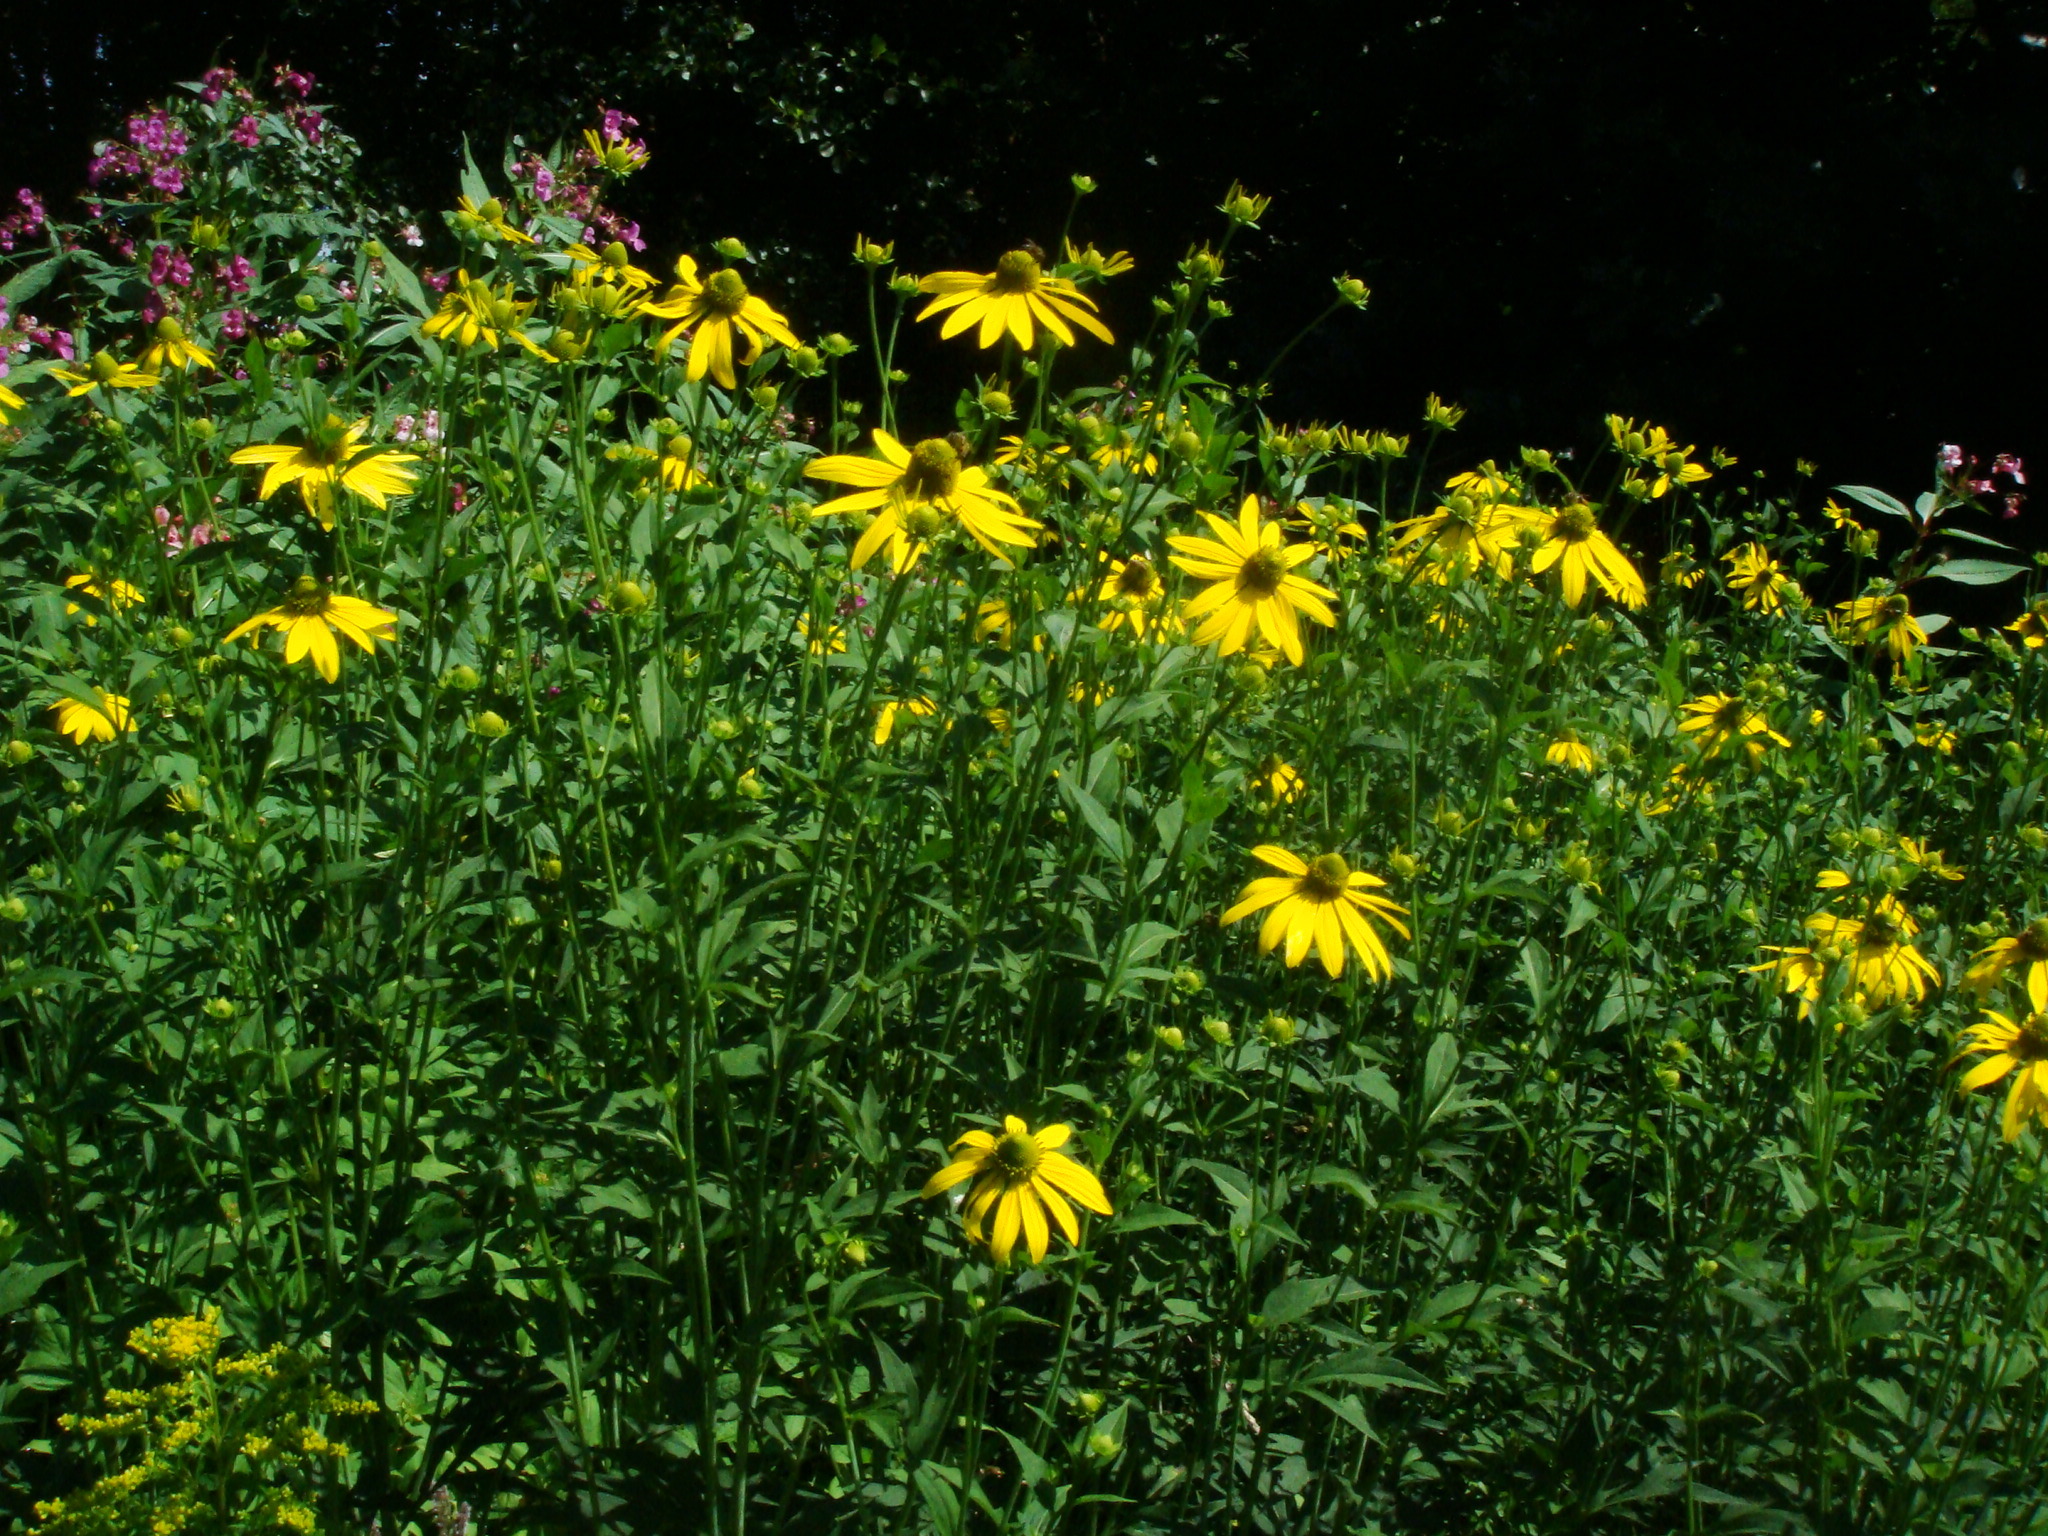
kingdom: Plantae
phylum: Tracheophyta
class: Magnoliopsida
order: Asterales
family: Asteraceae
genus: Rudbeckia
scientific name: Rudbeckia laciniata
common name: Coneflower
